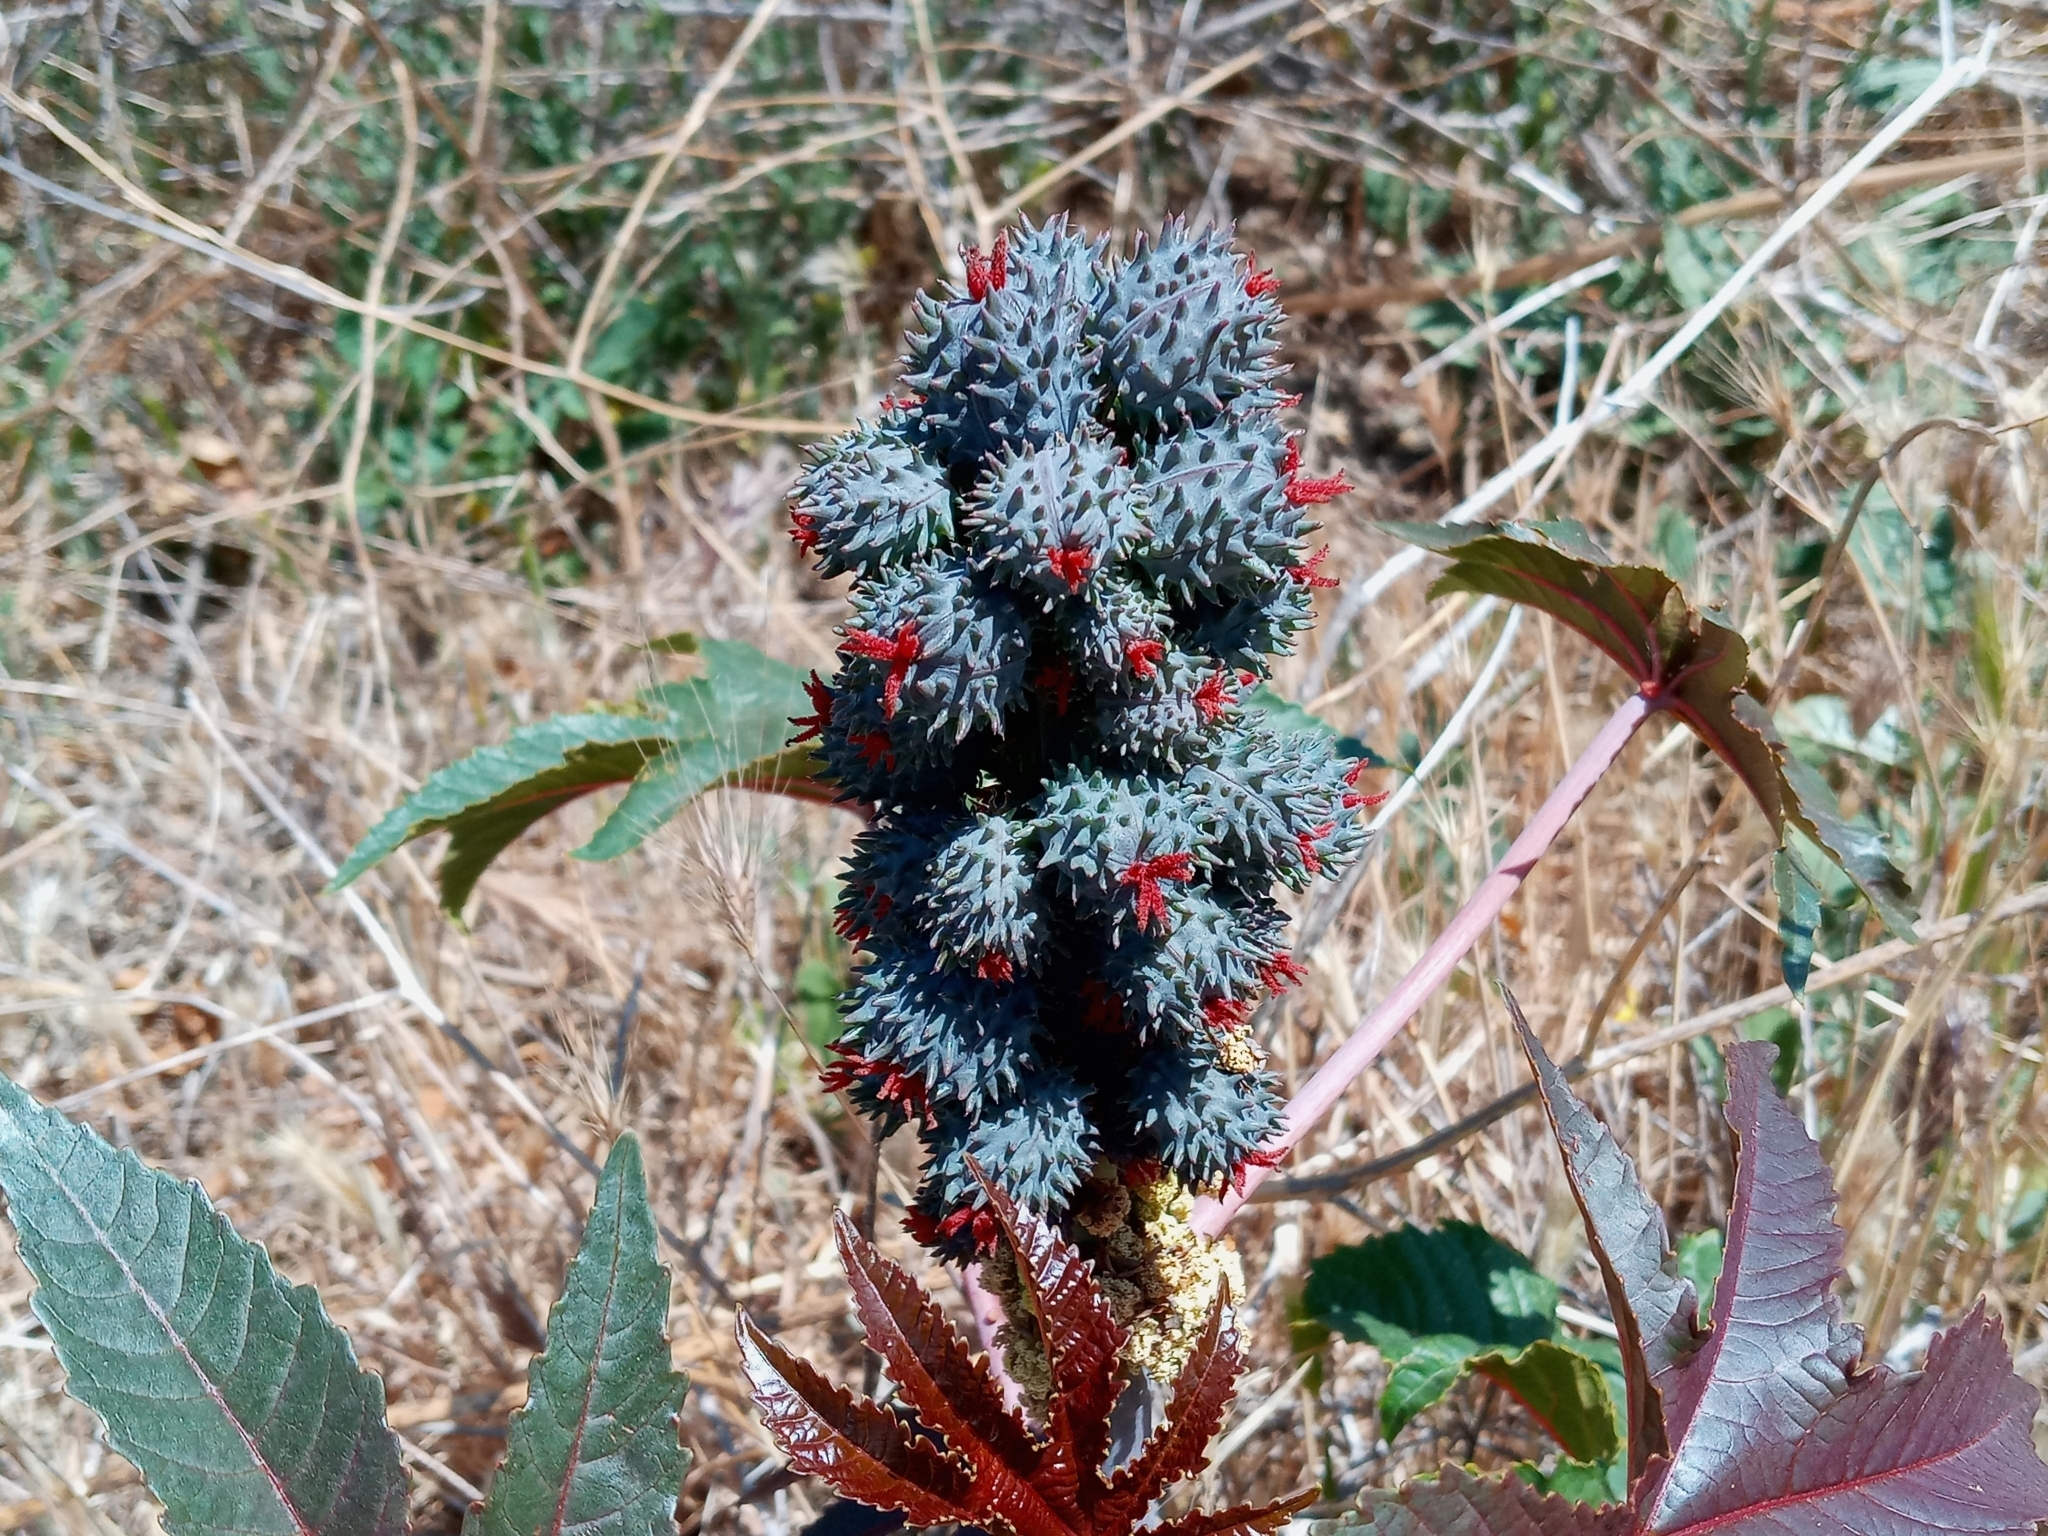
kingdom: Plantae
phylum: Tracheophyta
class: Magnoliopsida
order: Malpighiales
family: Euphorbiaceae
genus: Ricinus
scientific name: Ricinus communis
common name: Castor-oil-plant
